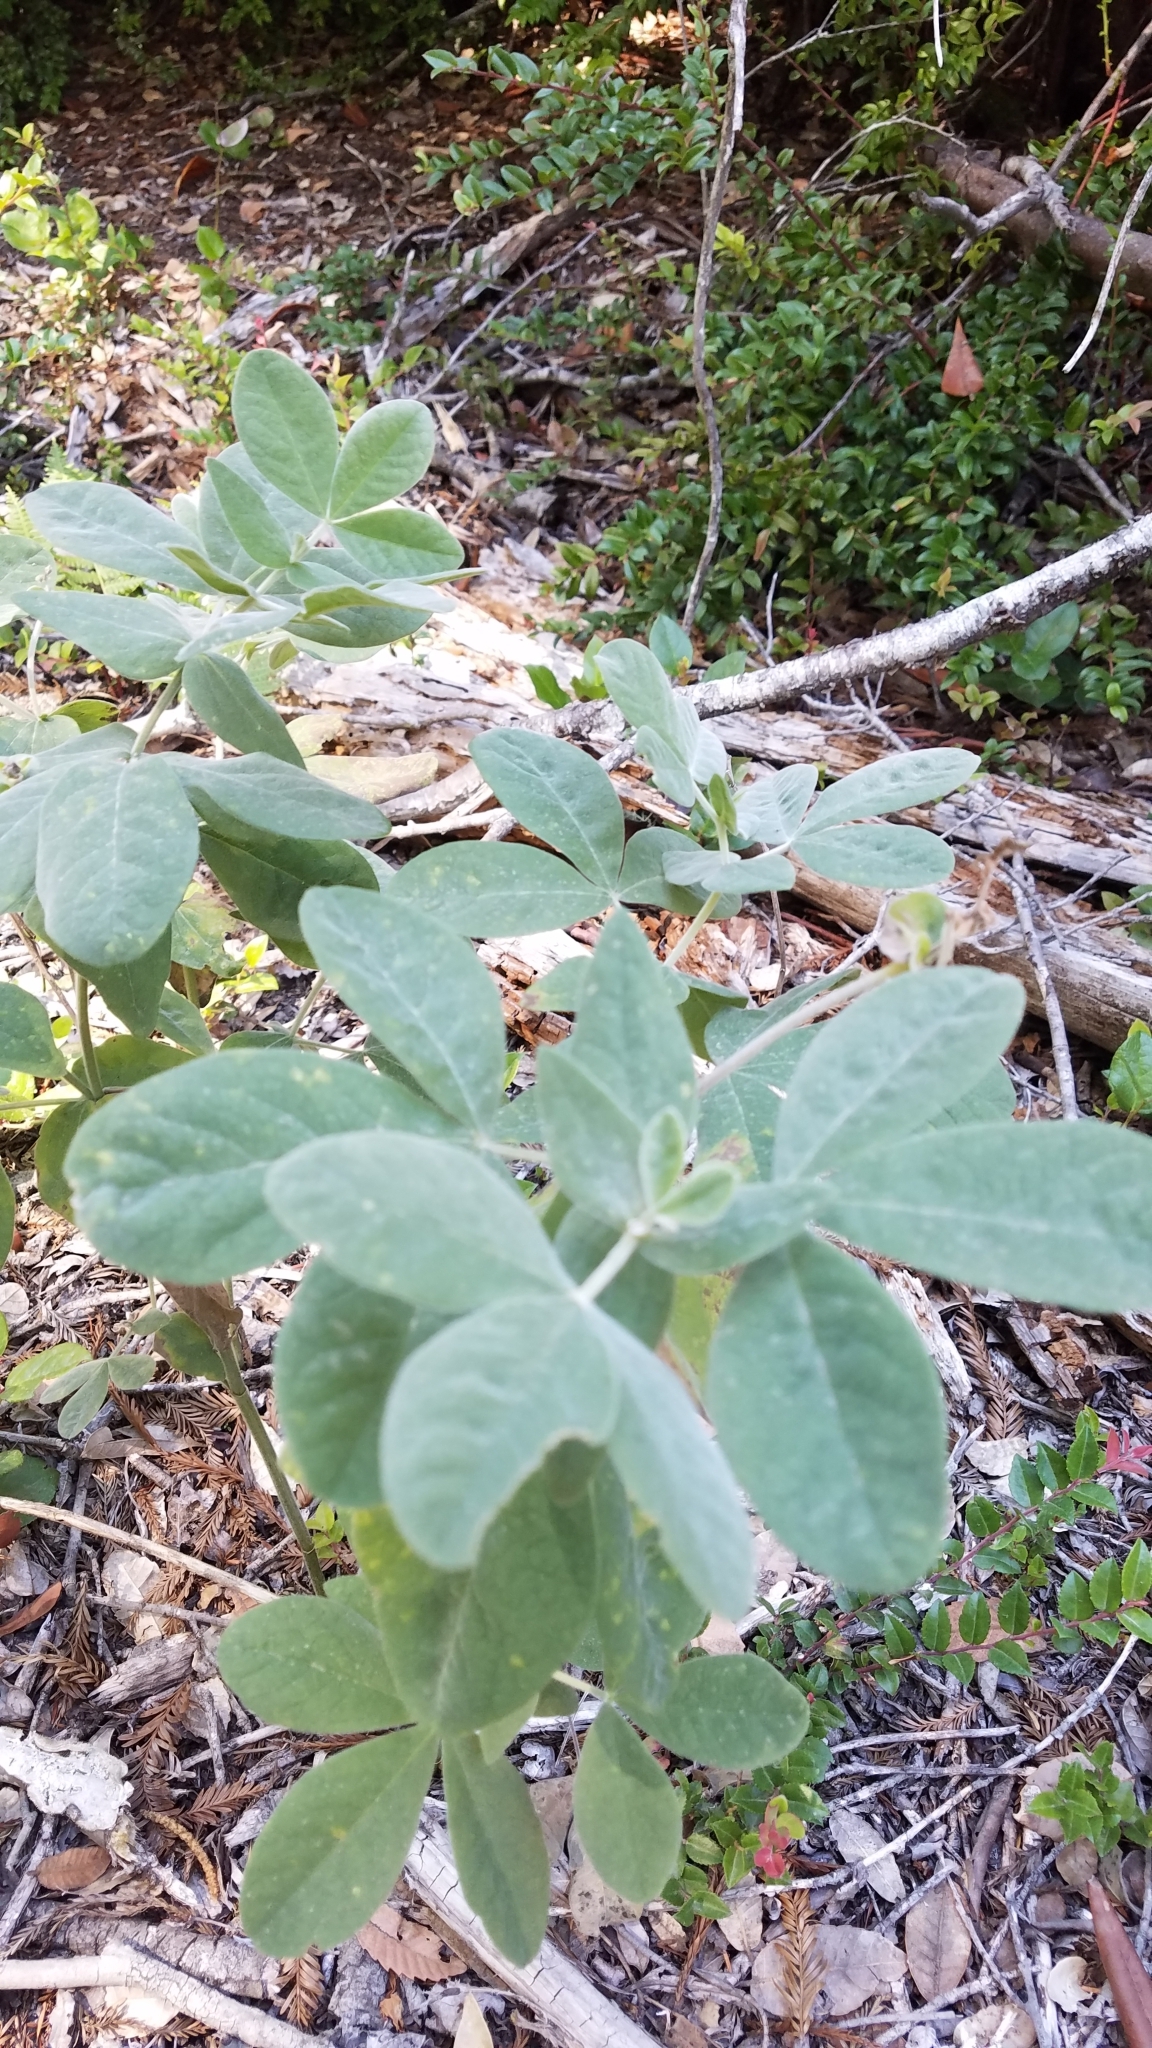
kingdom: Plantae
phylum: Tracheophyta
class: Magnoliopsida
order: Fabales
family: Fabaceae
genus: Thermopsis
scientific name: Thermopsis californica
